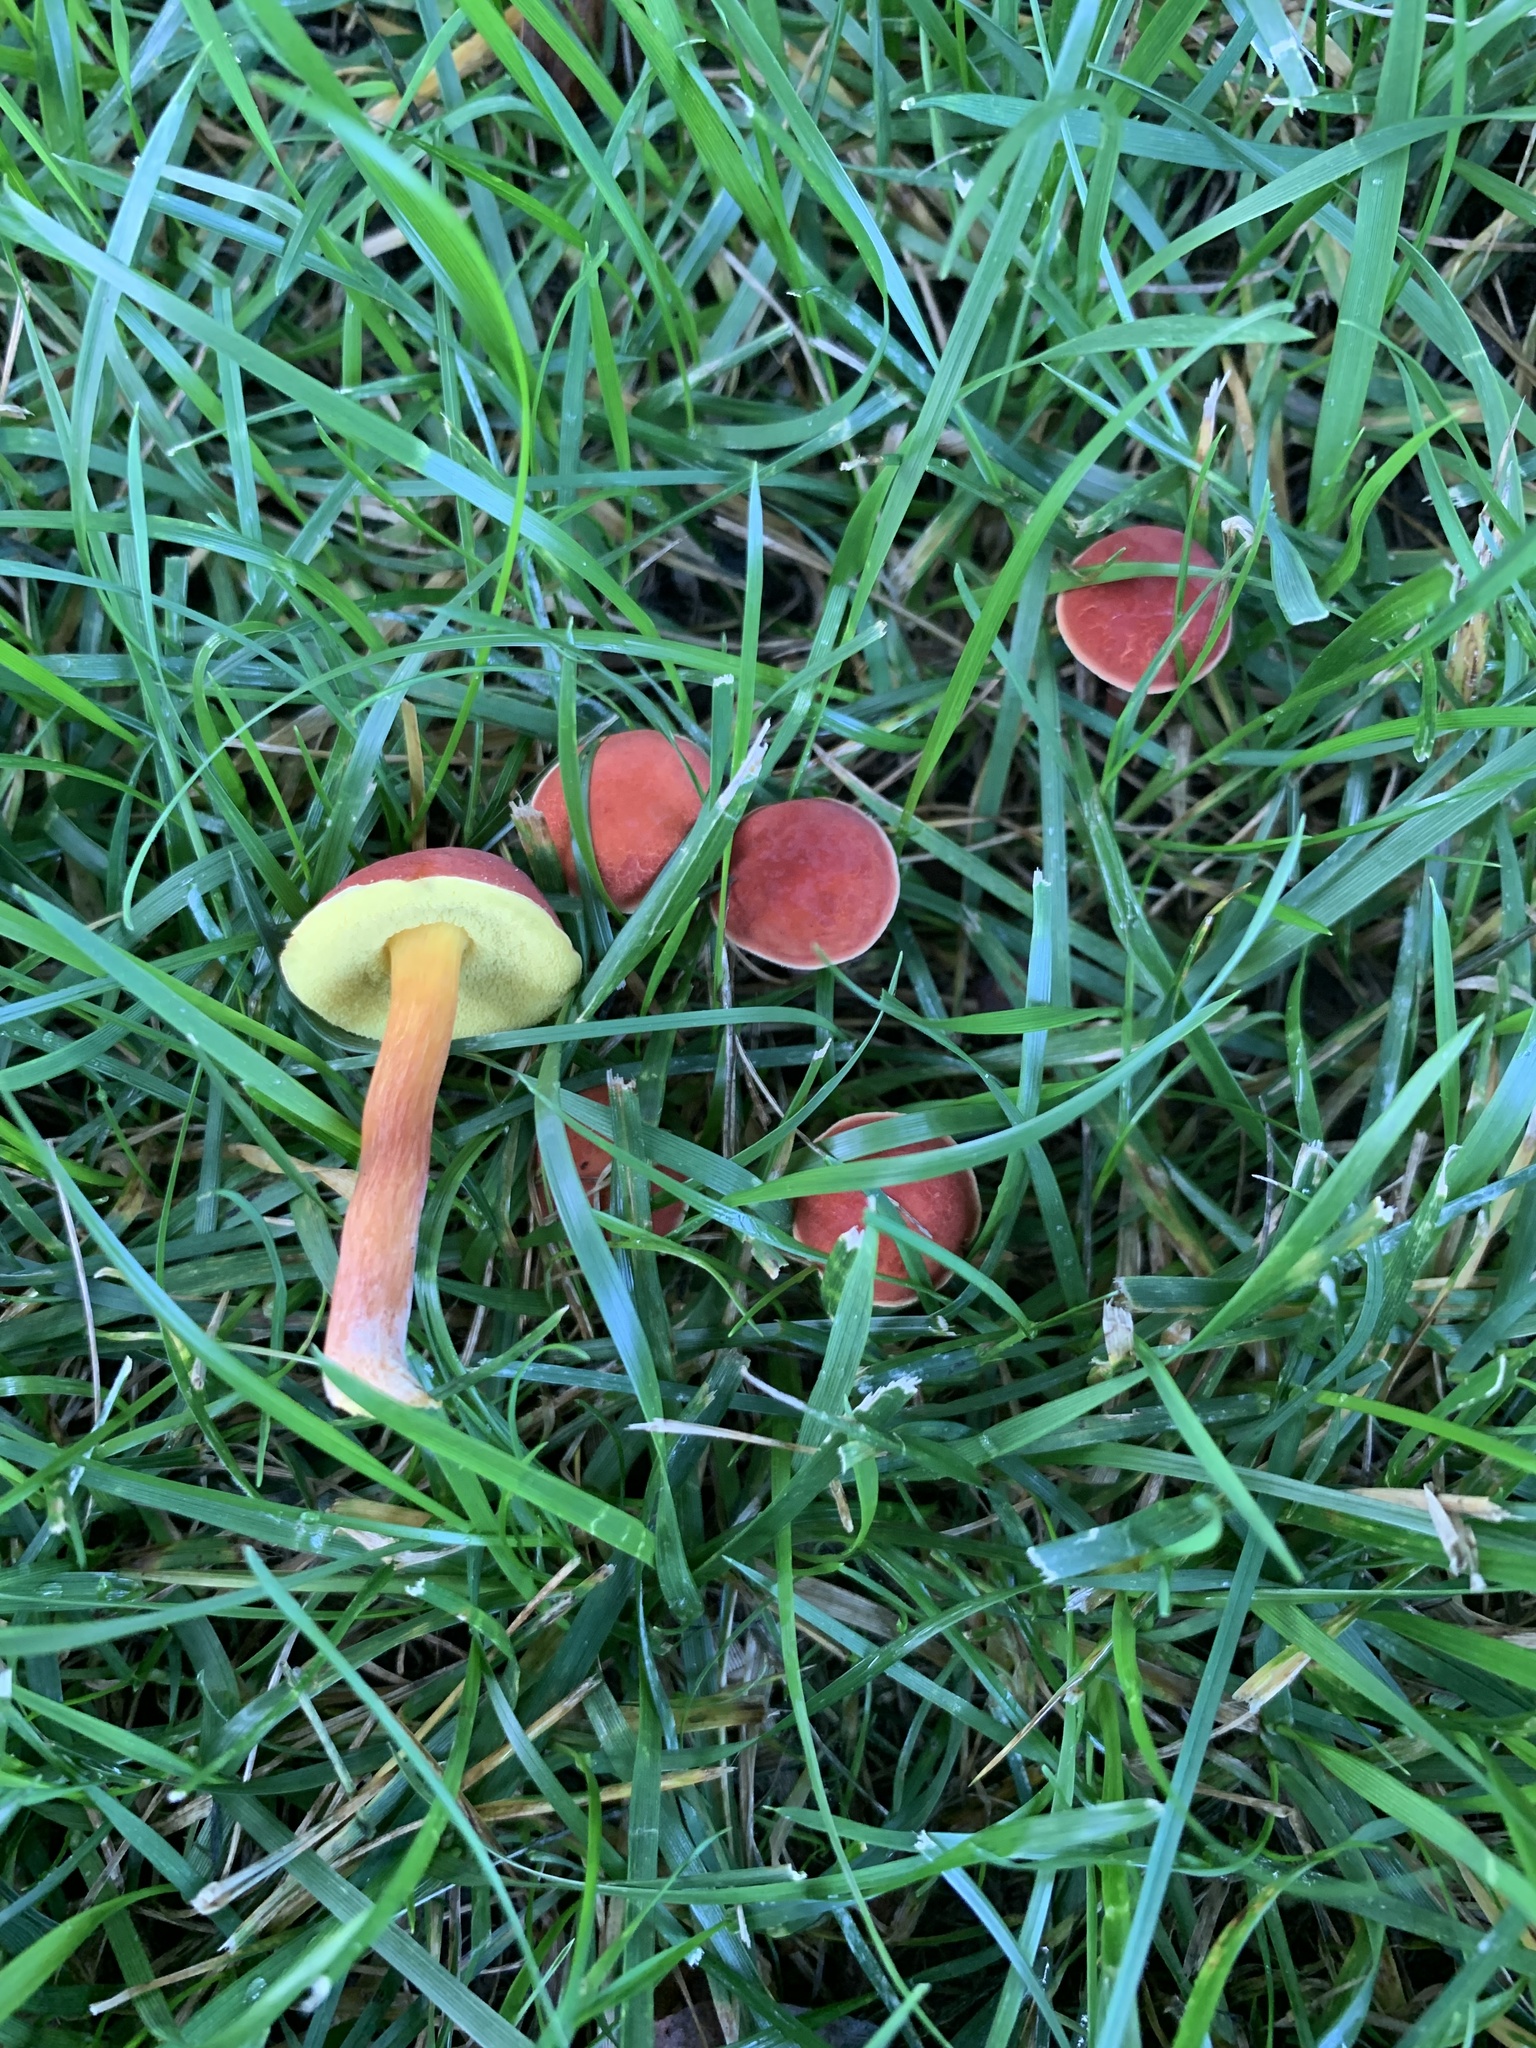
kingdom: Fungi
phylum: Basidiomycota
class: Agaricomycetes
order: Boletales
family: Boletaceae
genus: Hortiboletus
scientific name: Hortiboletus rubellus
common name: Ruby bolete
